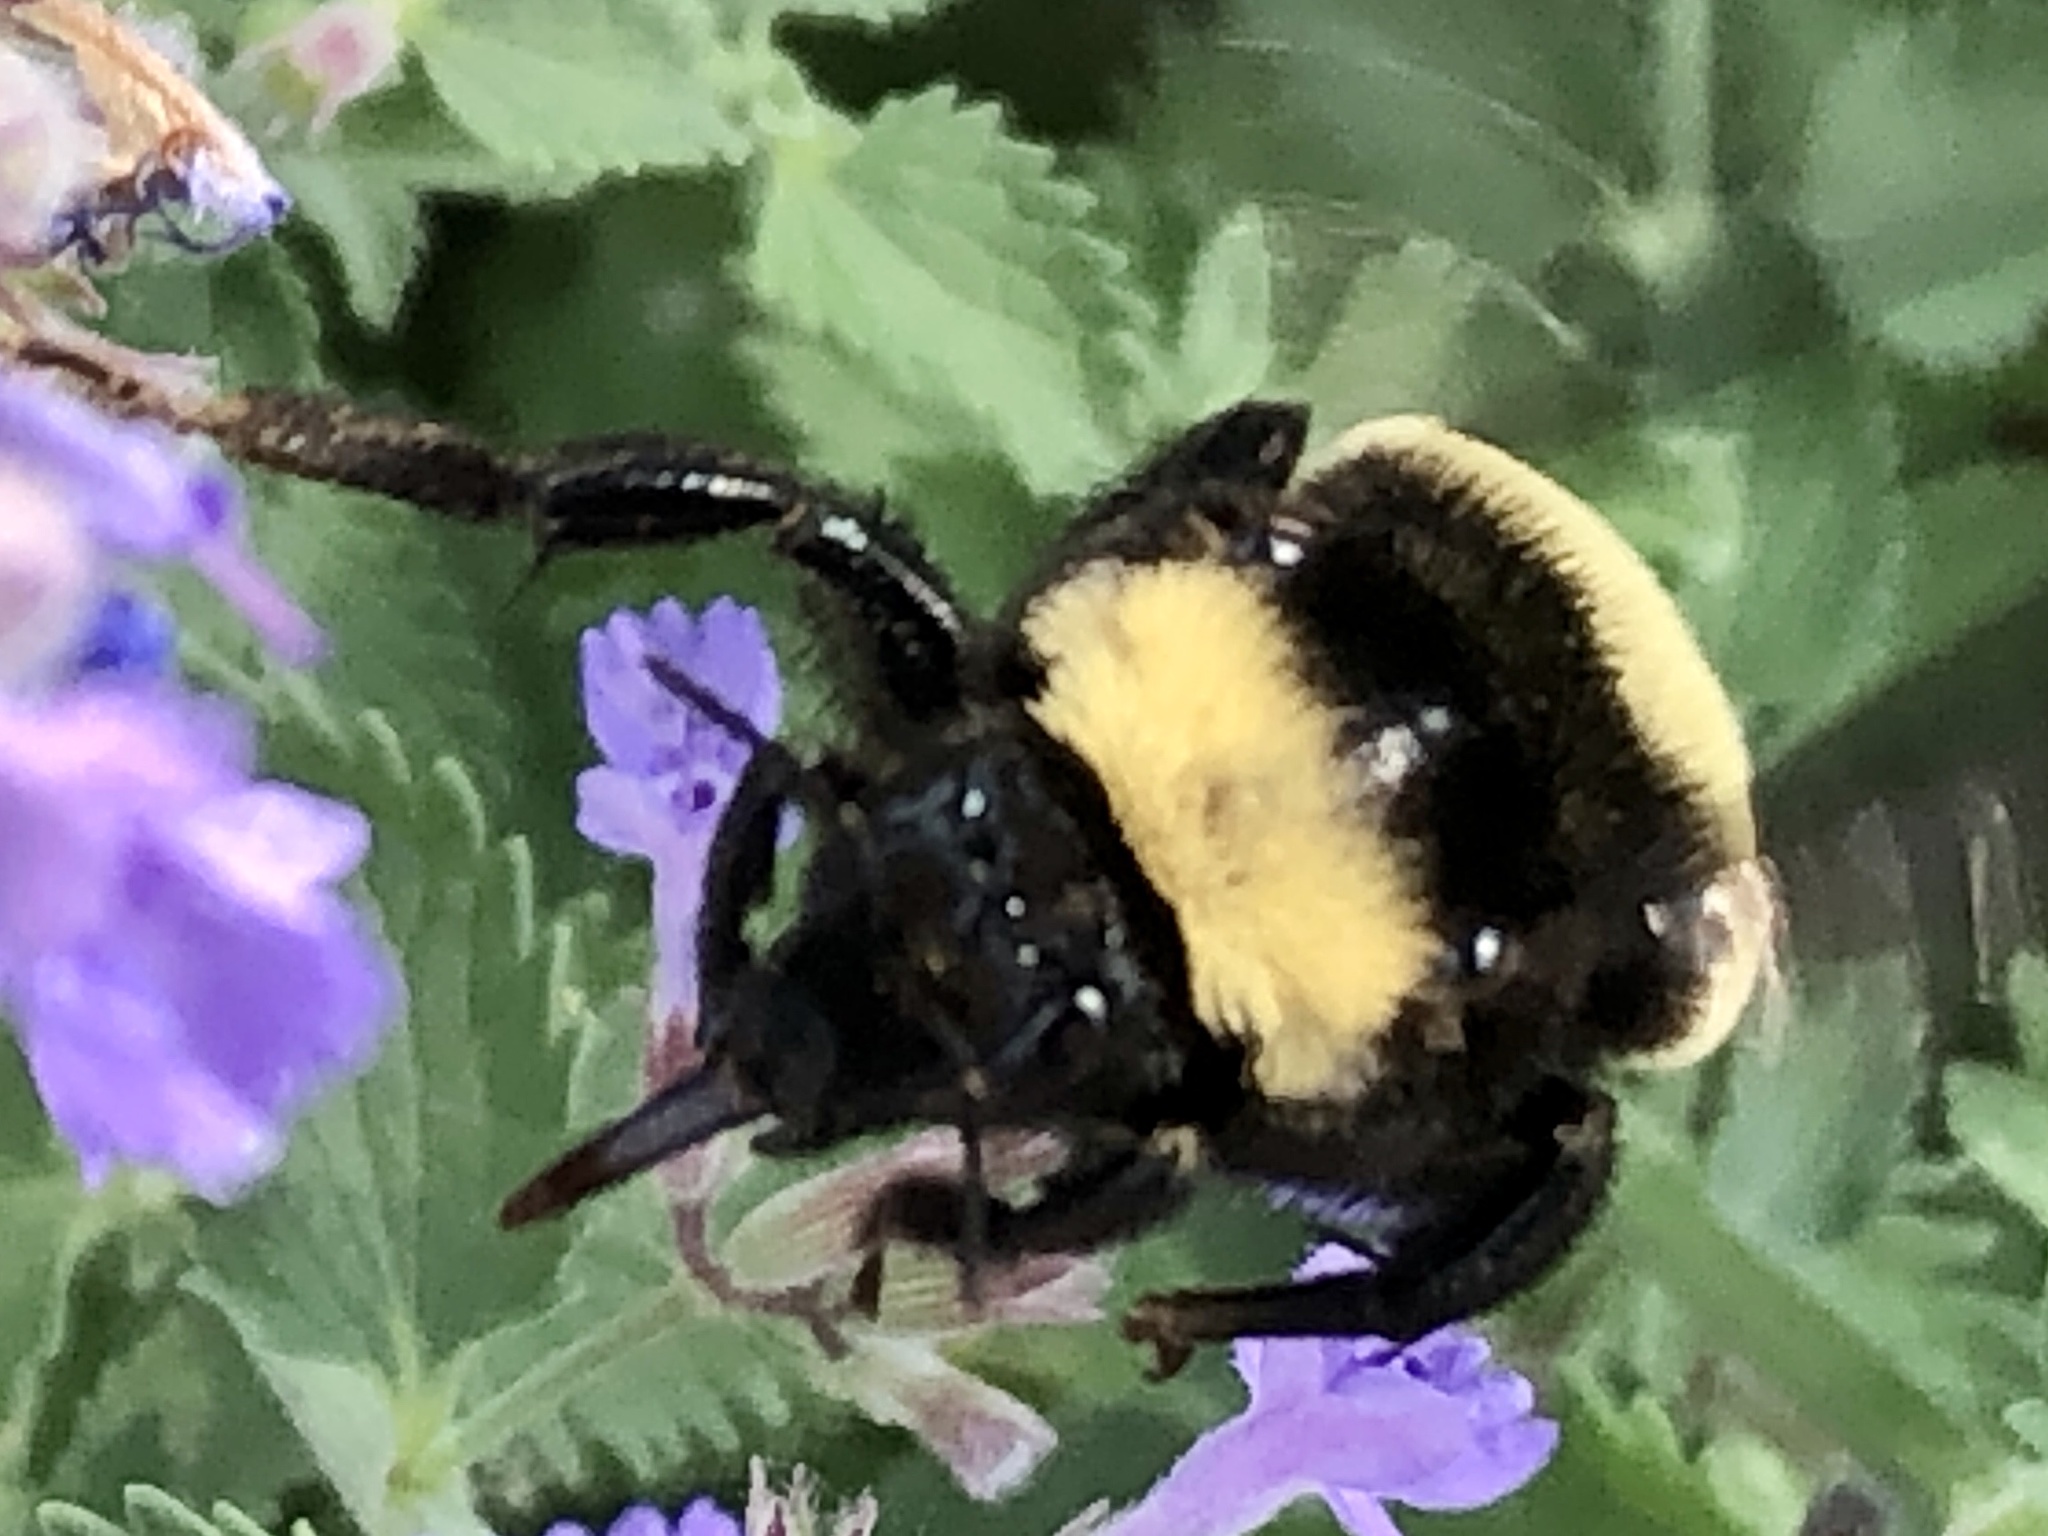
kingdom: Animalia
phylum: Arthropoda
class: Insecta
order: Hymenoptera
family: Apidae
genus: Bombus
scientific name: Bombus pensylvanicus
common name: Bumble bee
